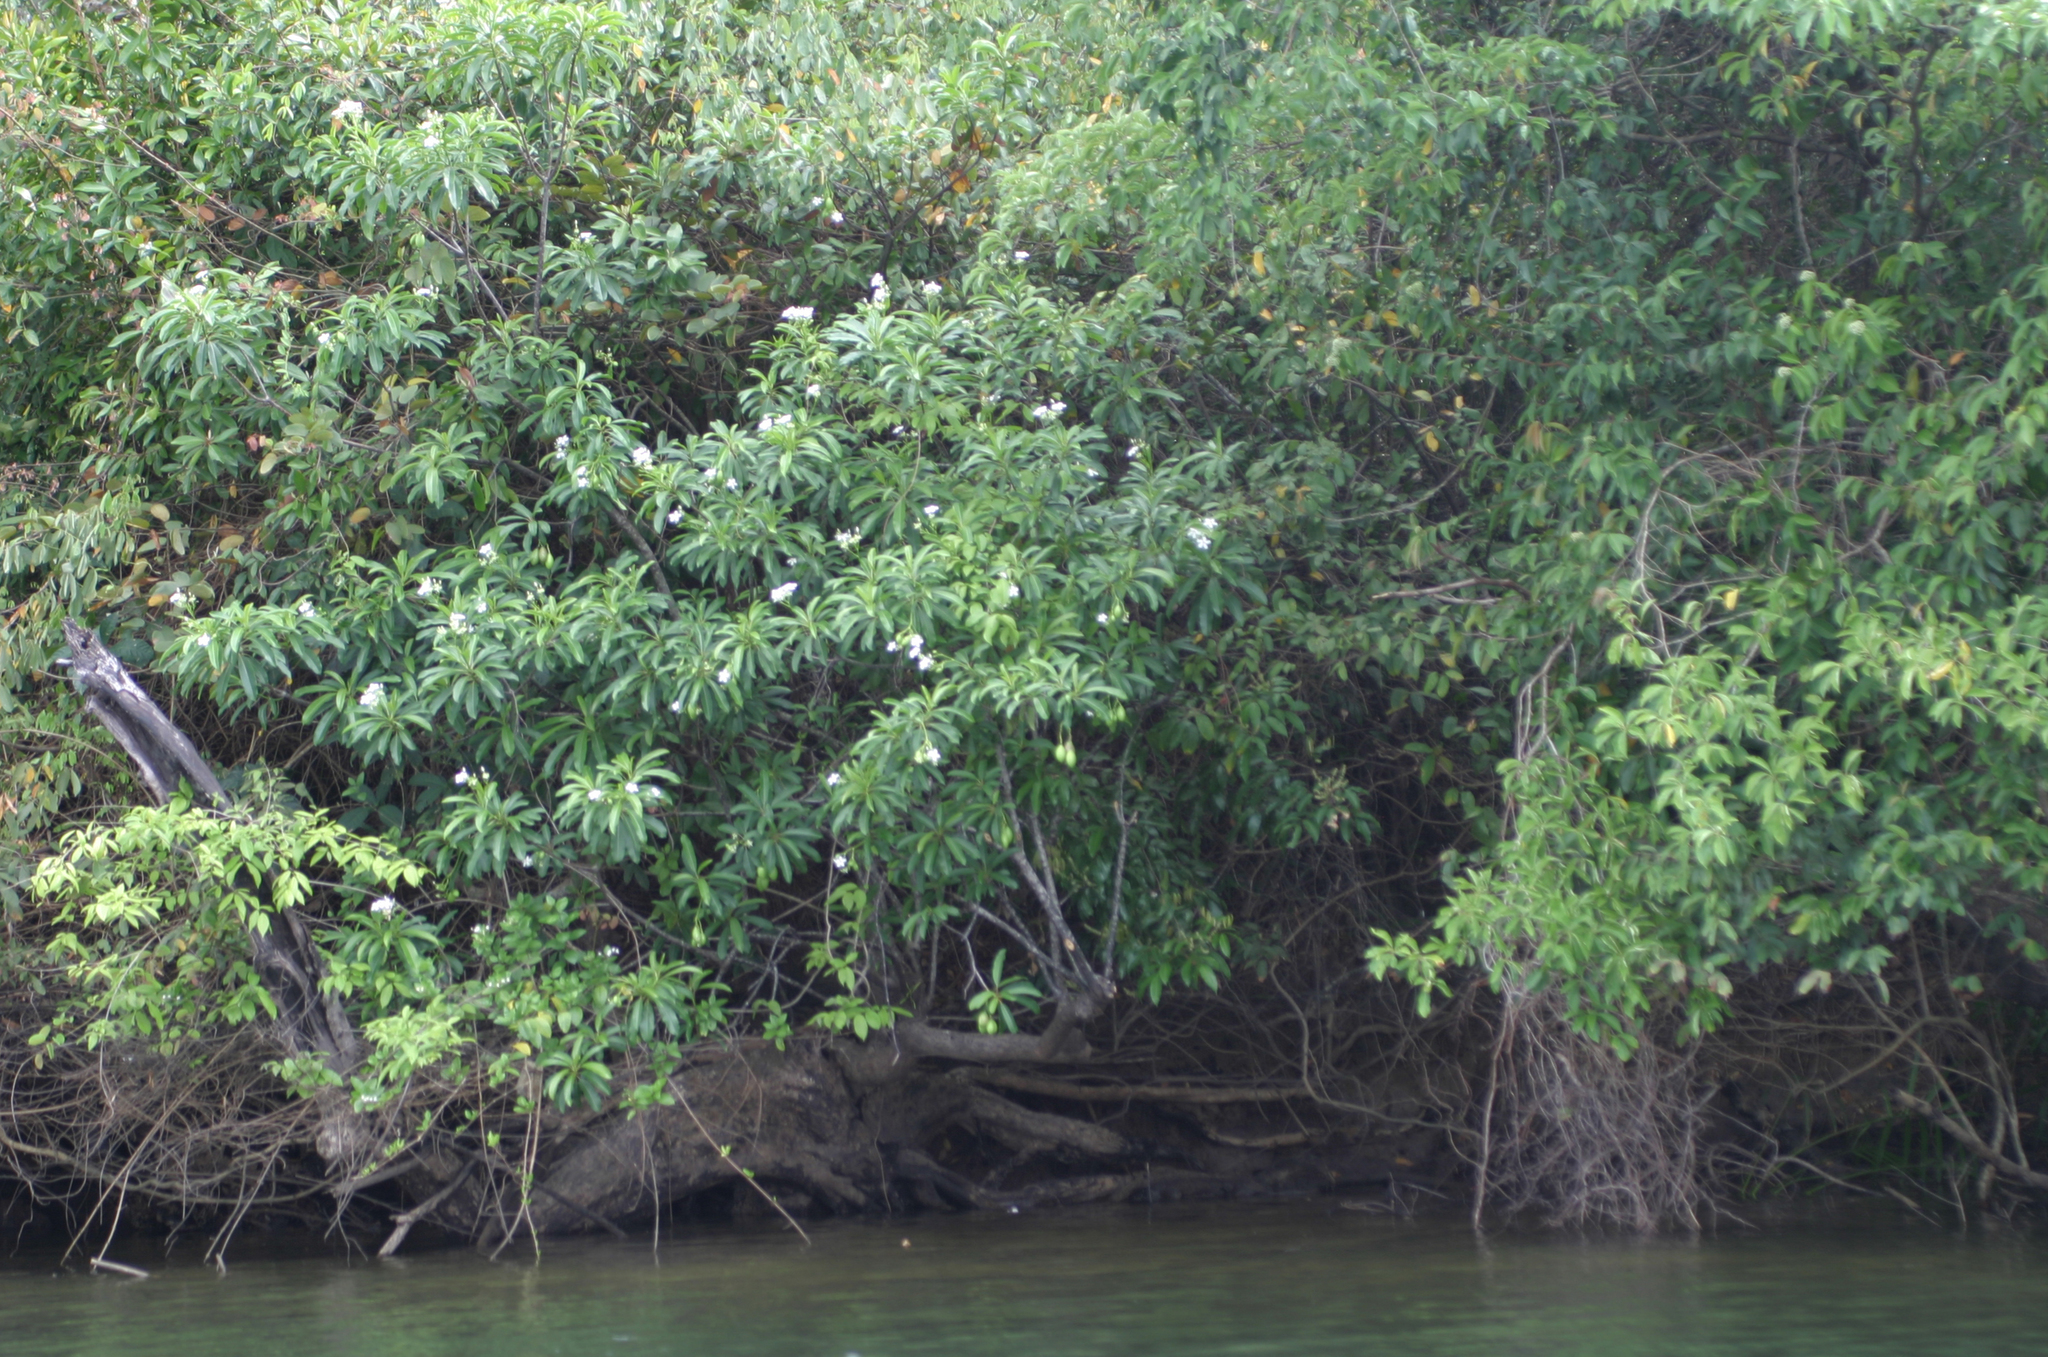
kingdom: Plantae
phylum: Tracheophyta
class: Magnoliopsida
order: Gentianales
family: Apocynaceae
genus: Cerbera
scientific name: Cerbera manghas
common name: Reva
